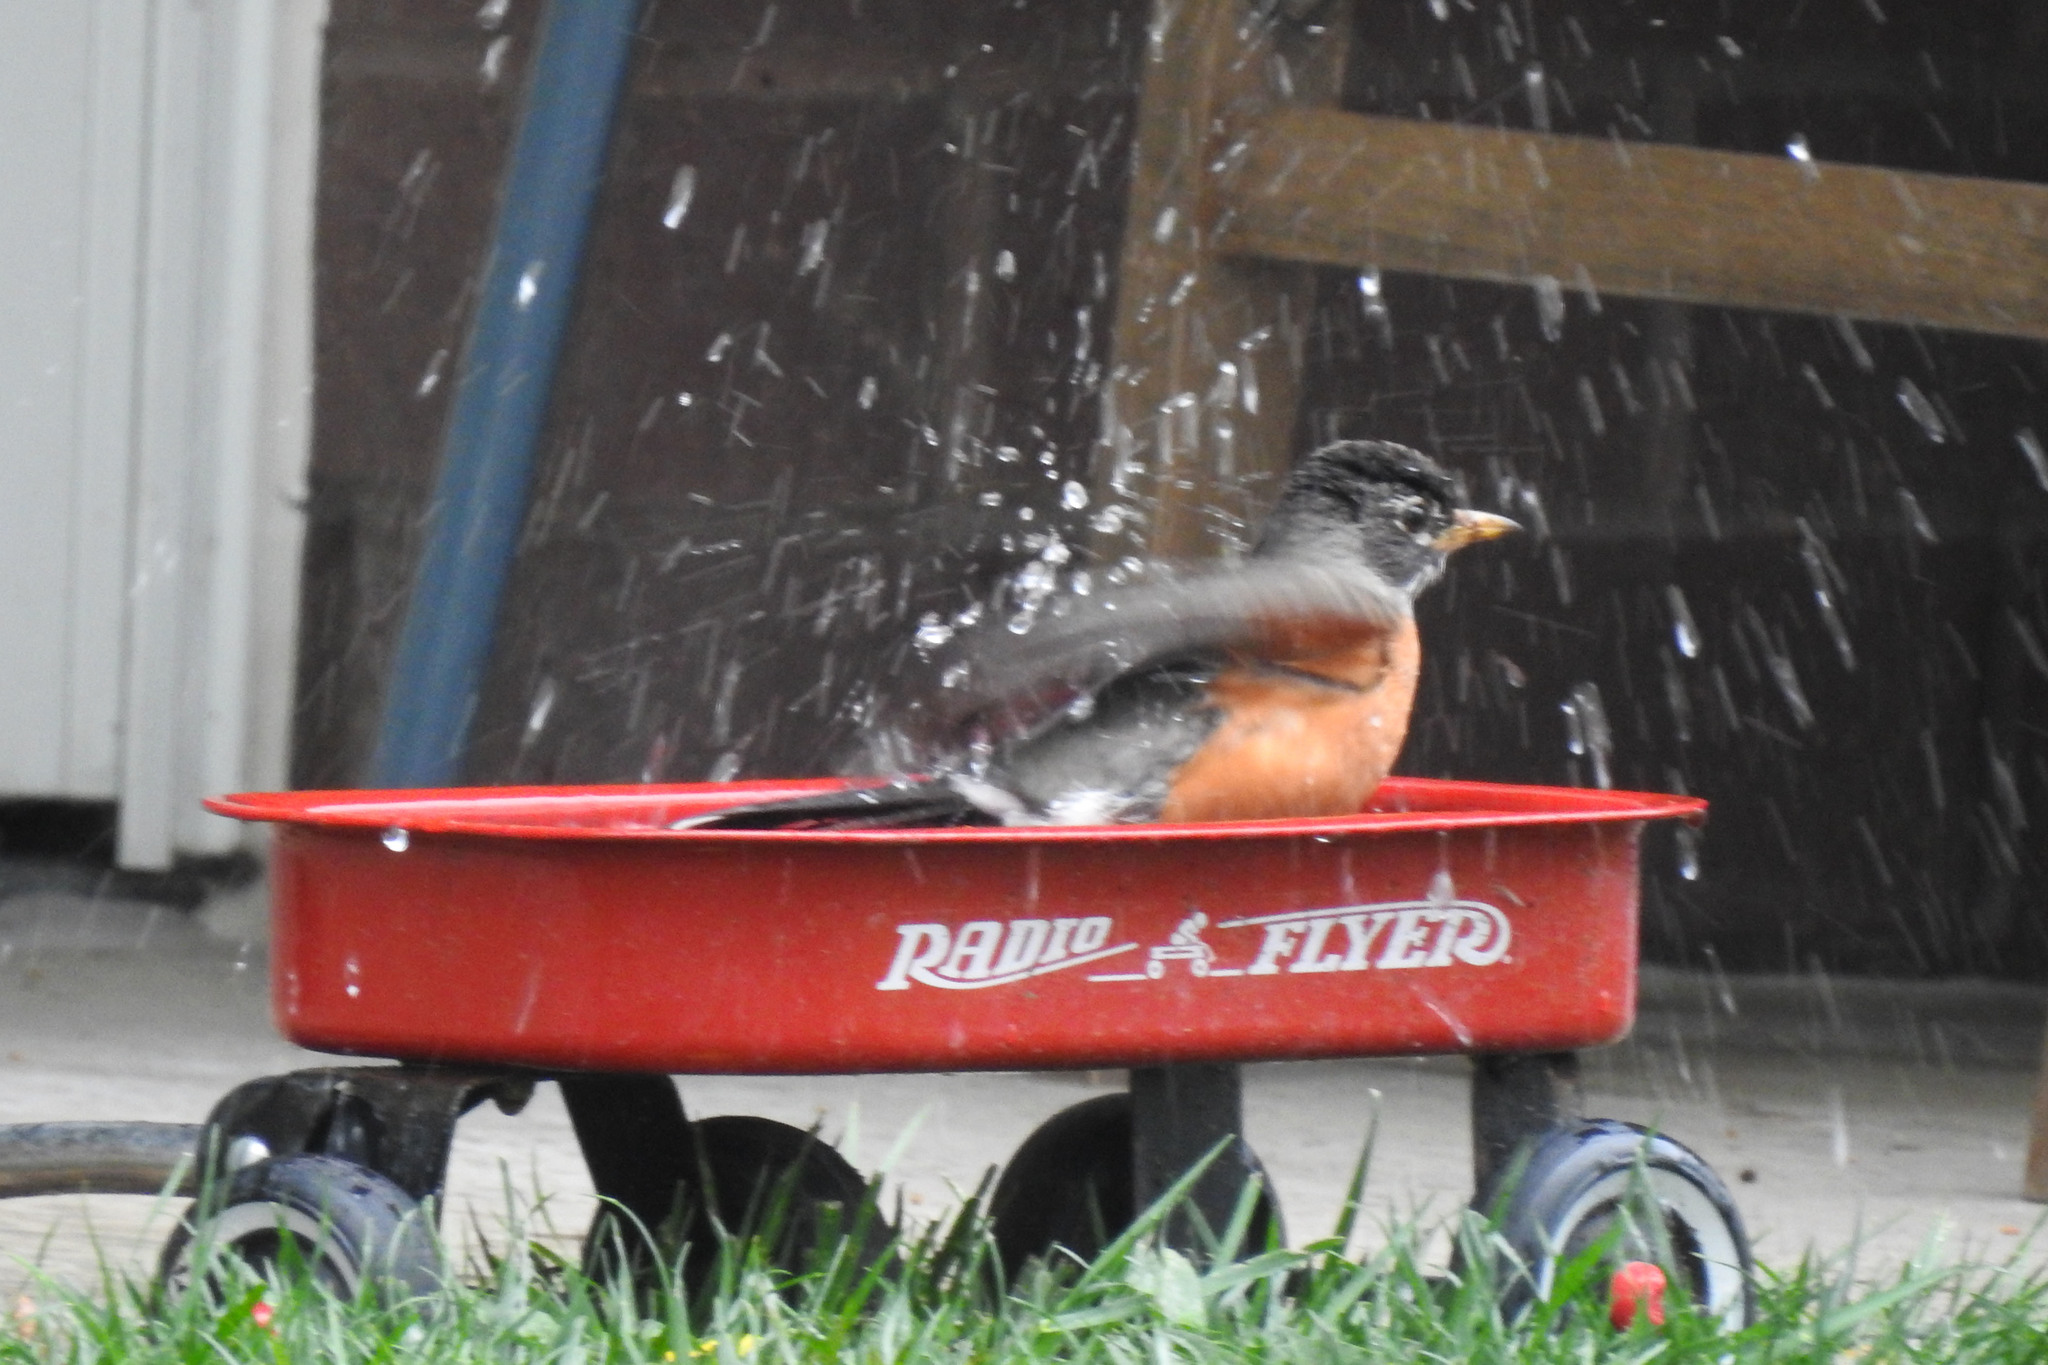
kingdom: Animalia
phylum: Chordata
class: Aves
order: Passeriformes
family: Turdidae
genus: Turdus
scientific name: Turdus migratorius
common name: American robin
